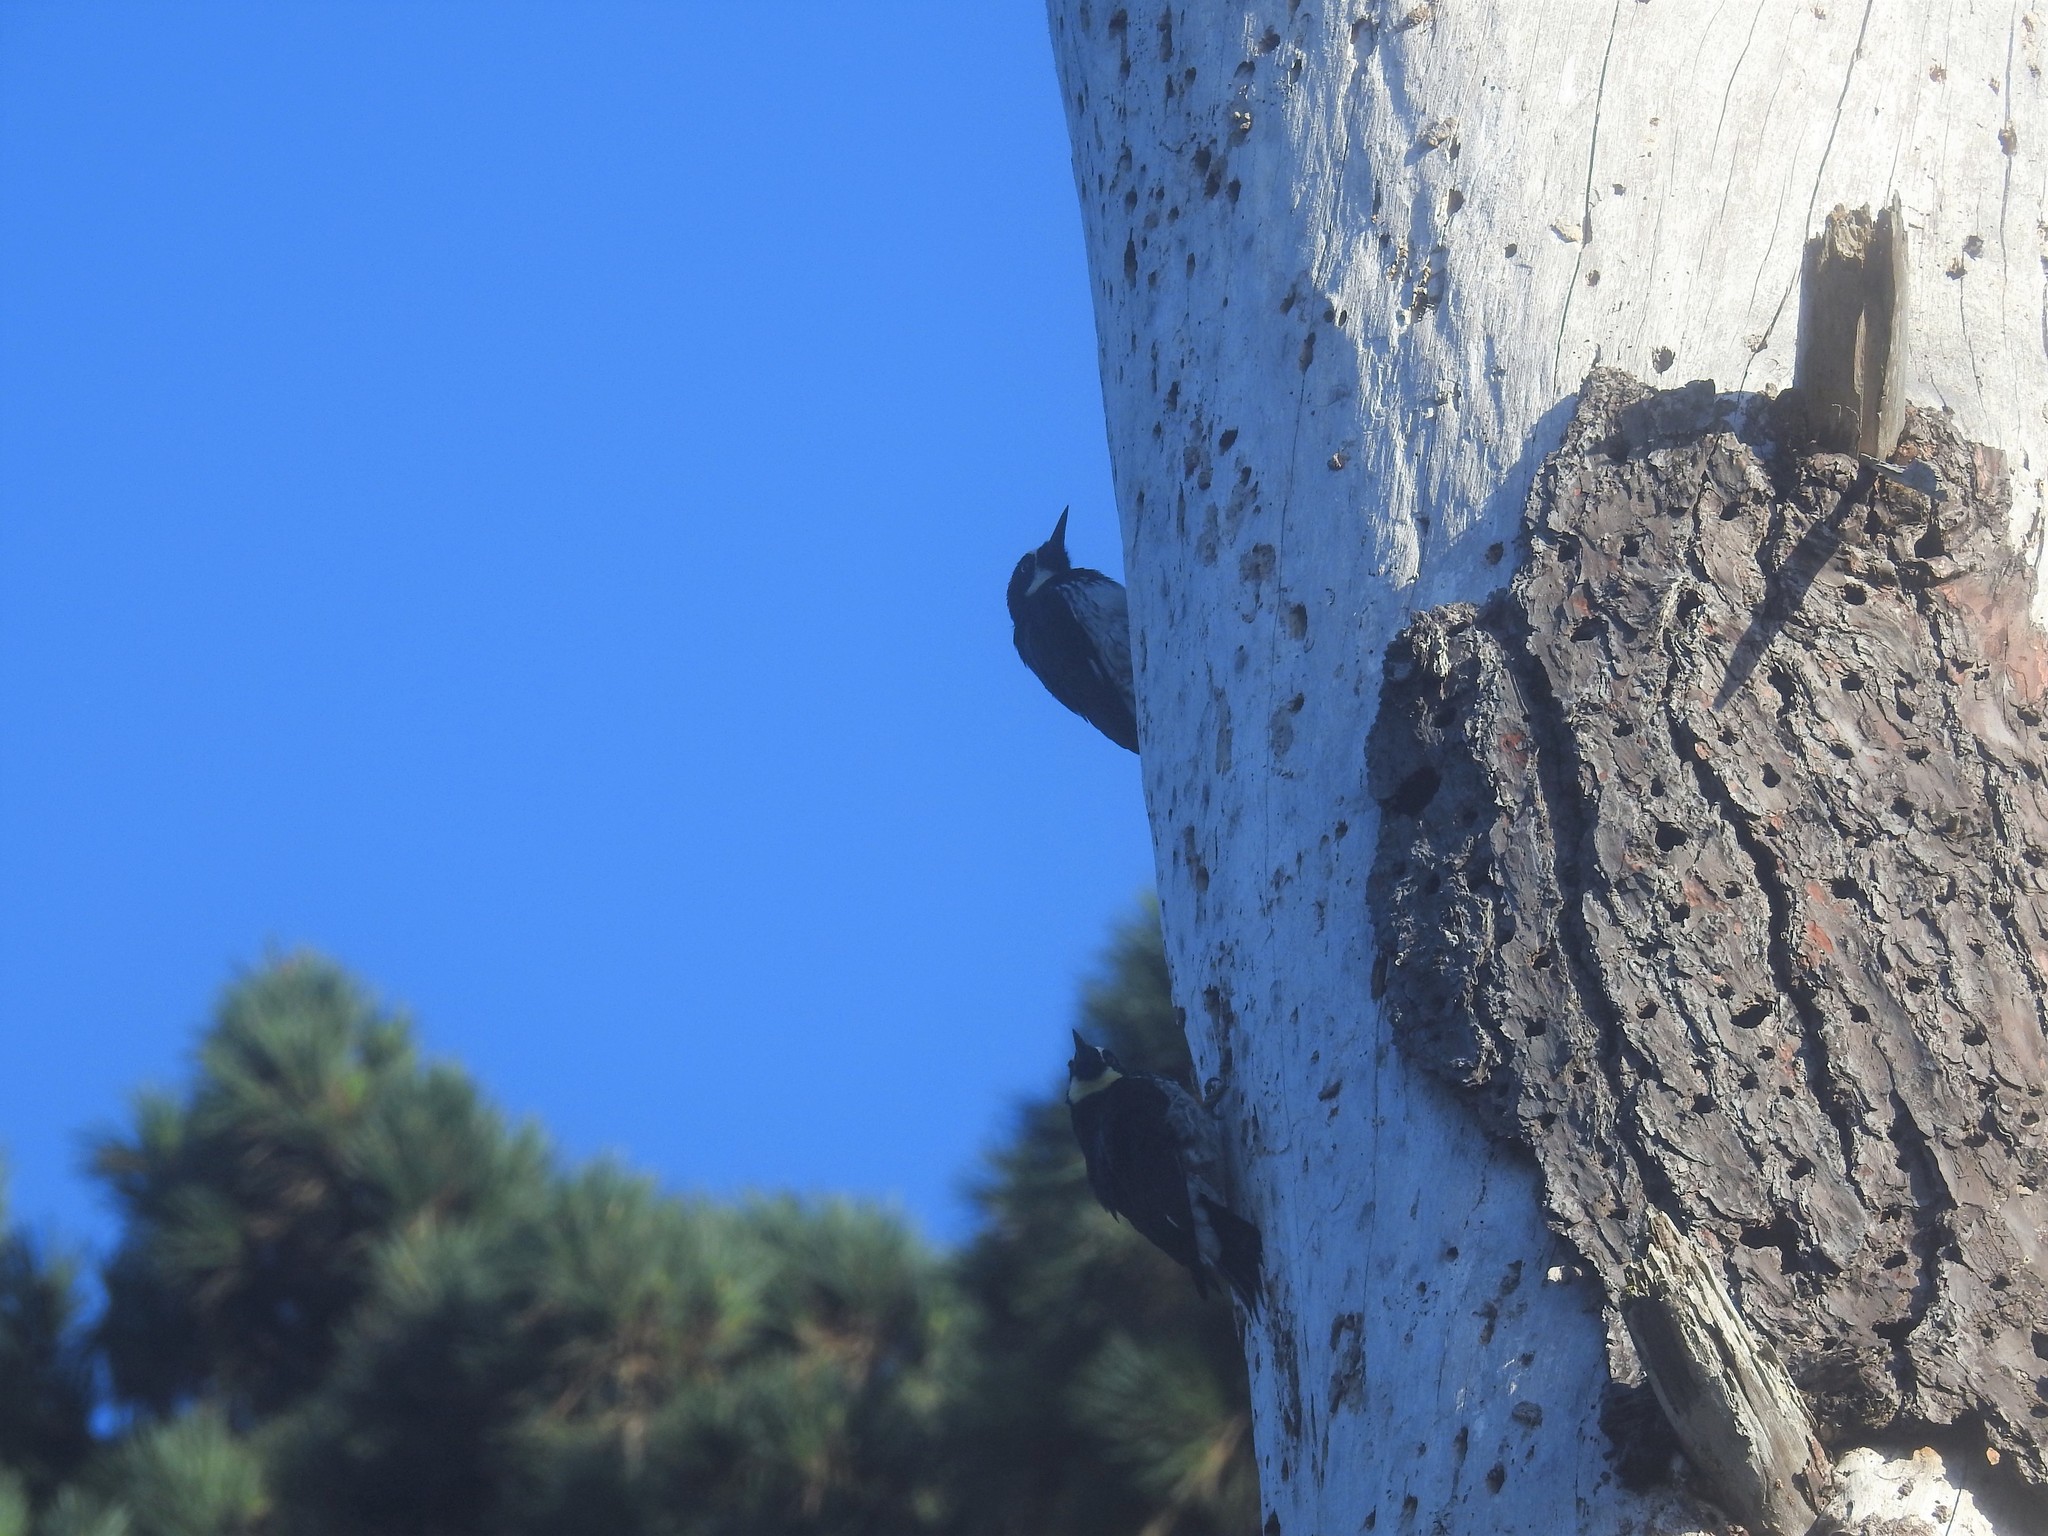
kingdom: Animalia
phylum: Chordata
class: Aves
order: Piciformes
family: Picidae
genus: Melanerpes
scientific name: Melanerpes formicivorus
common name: Acorn woodpecker
